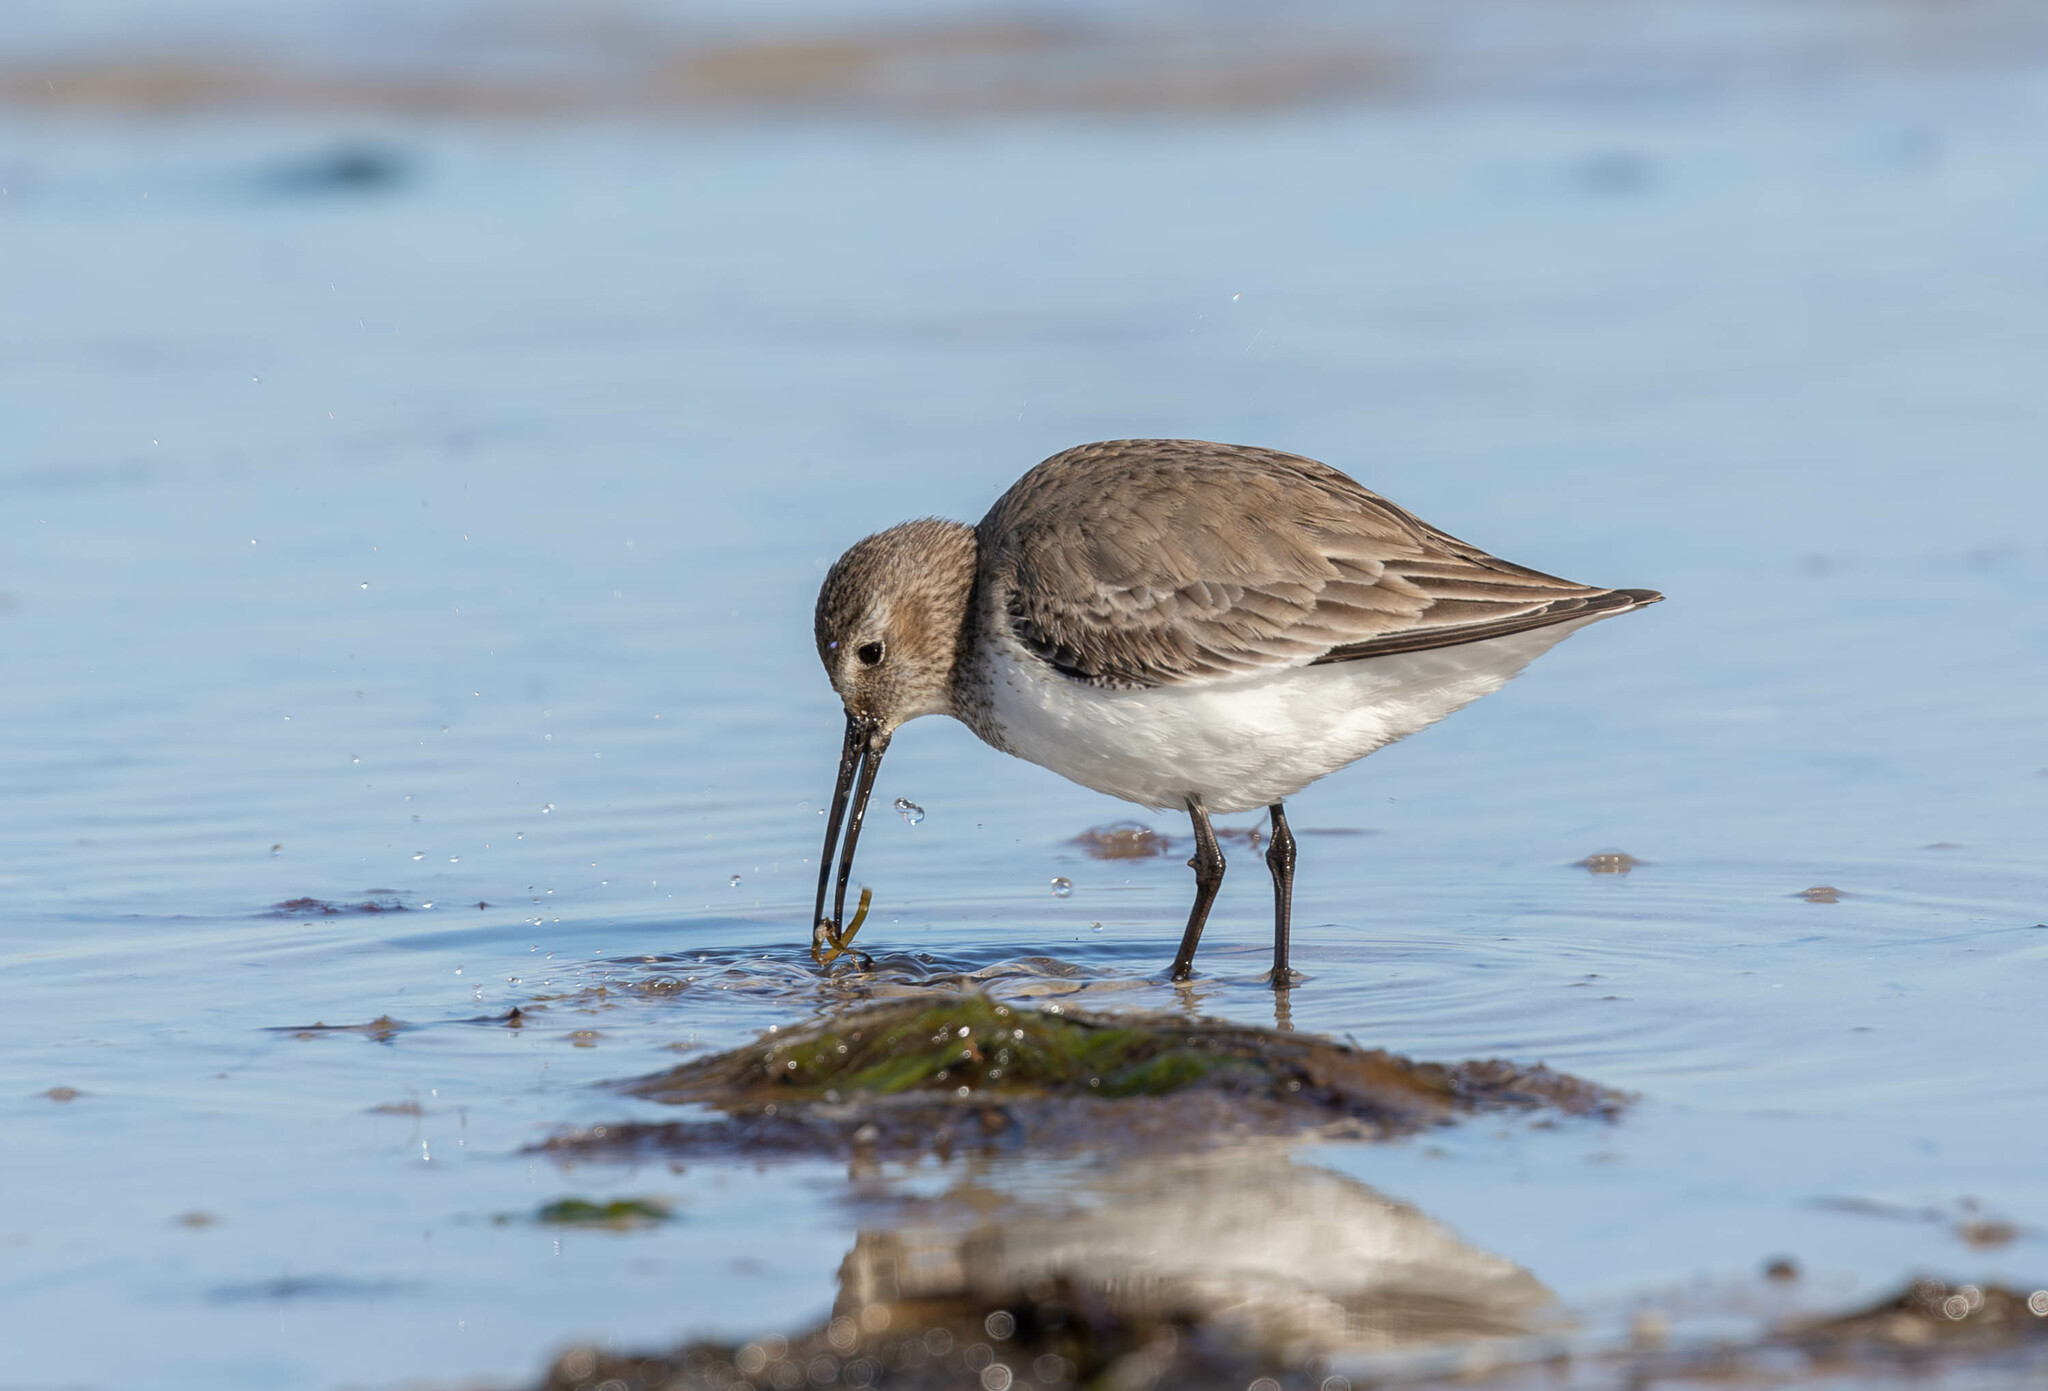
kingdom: Animalia
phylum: Chordata
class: Aves
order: Charadriiformes
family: Scolopacidae
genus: Calidris
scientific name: Calidris alpina
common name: Dunlin
